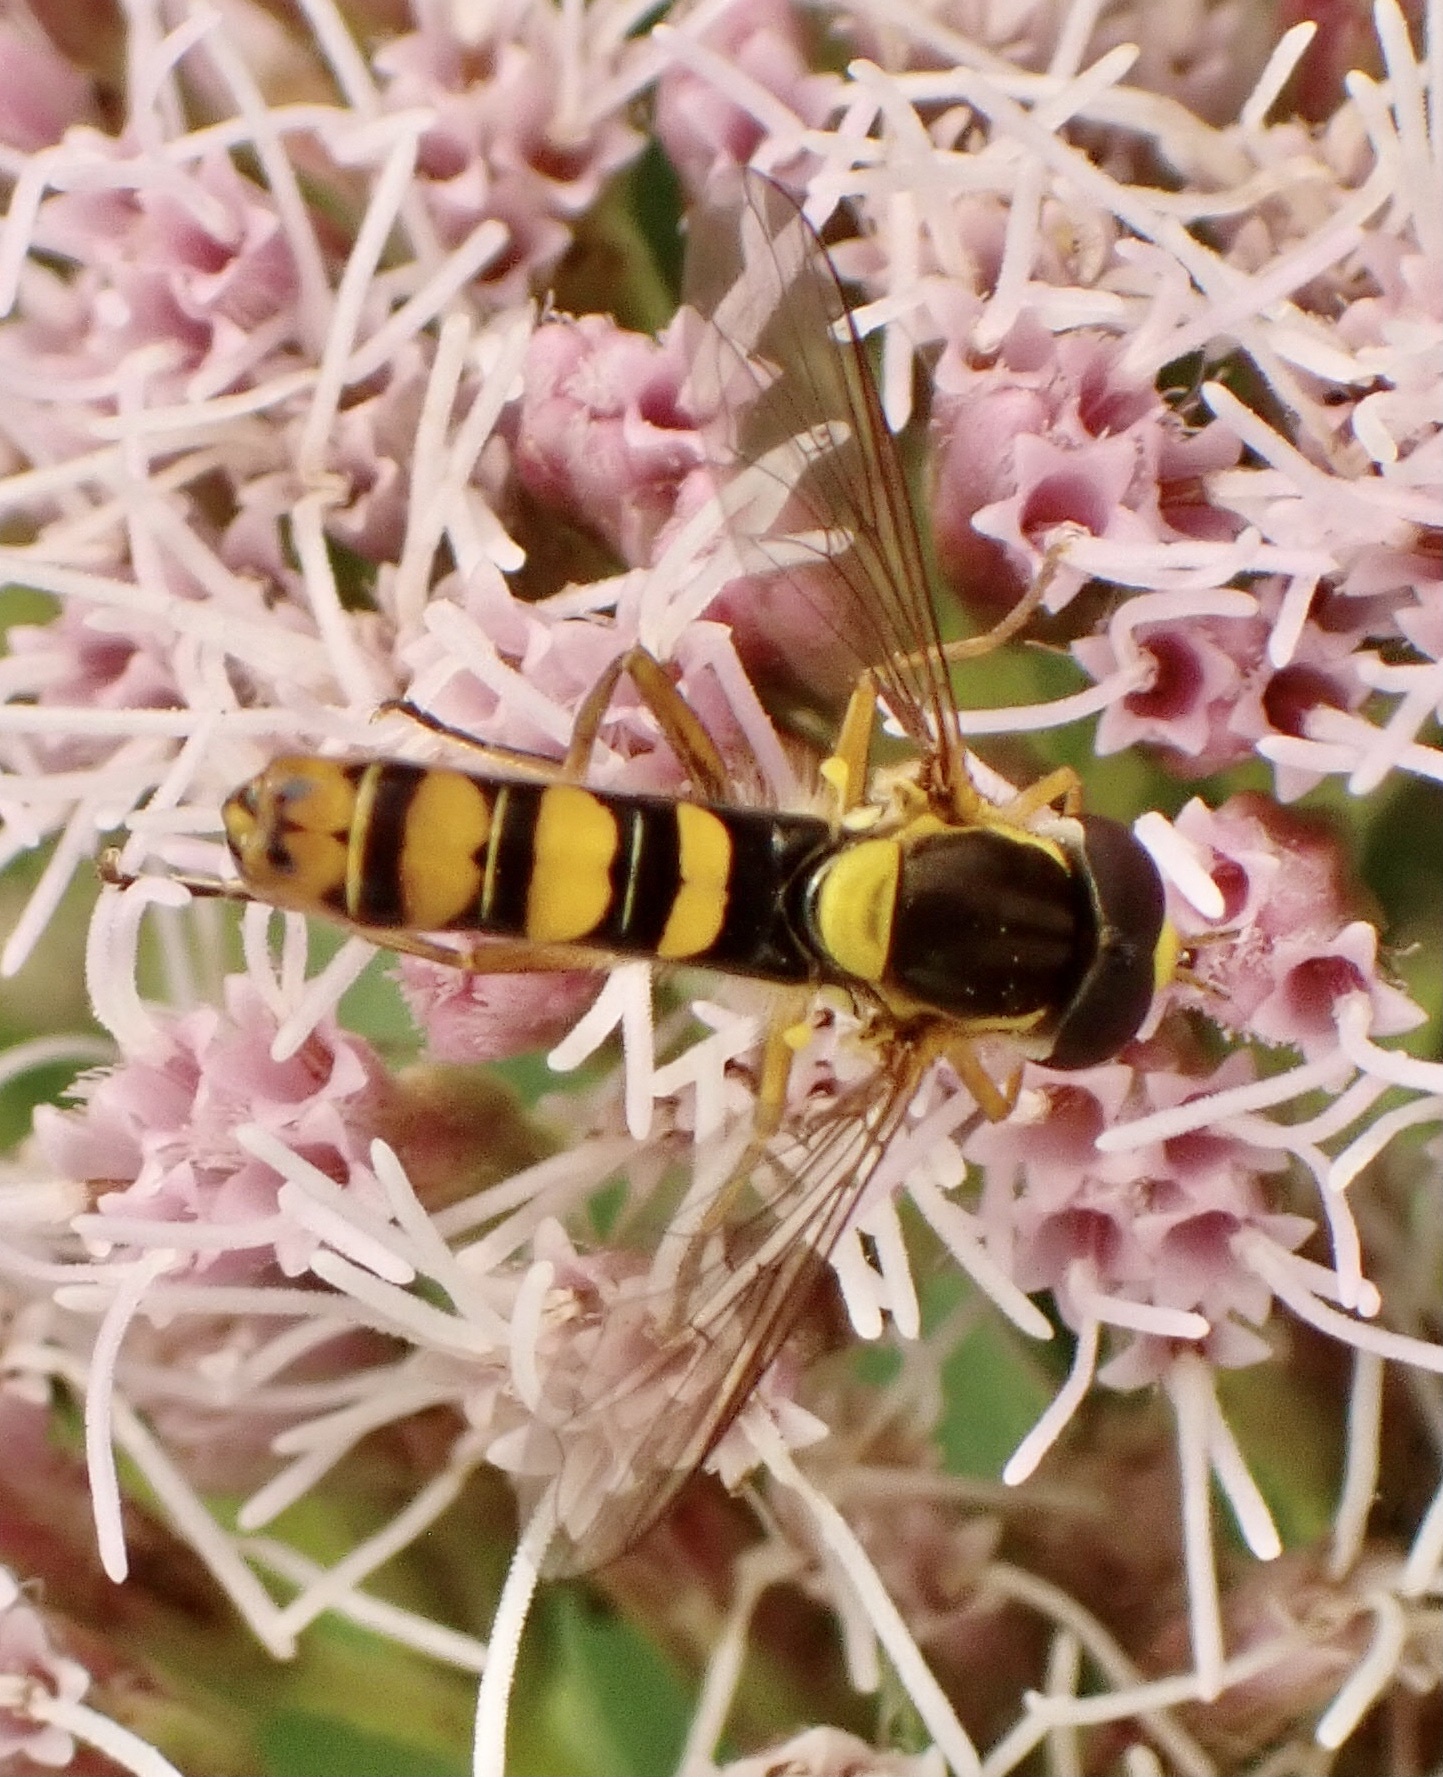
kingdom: Animalia
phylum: Arthropoda
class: Insecta
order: Diptera
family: Syrphidae
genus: Sphaerophoria
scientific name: Sphaerophoria
